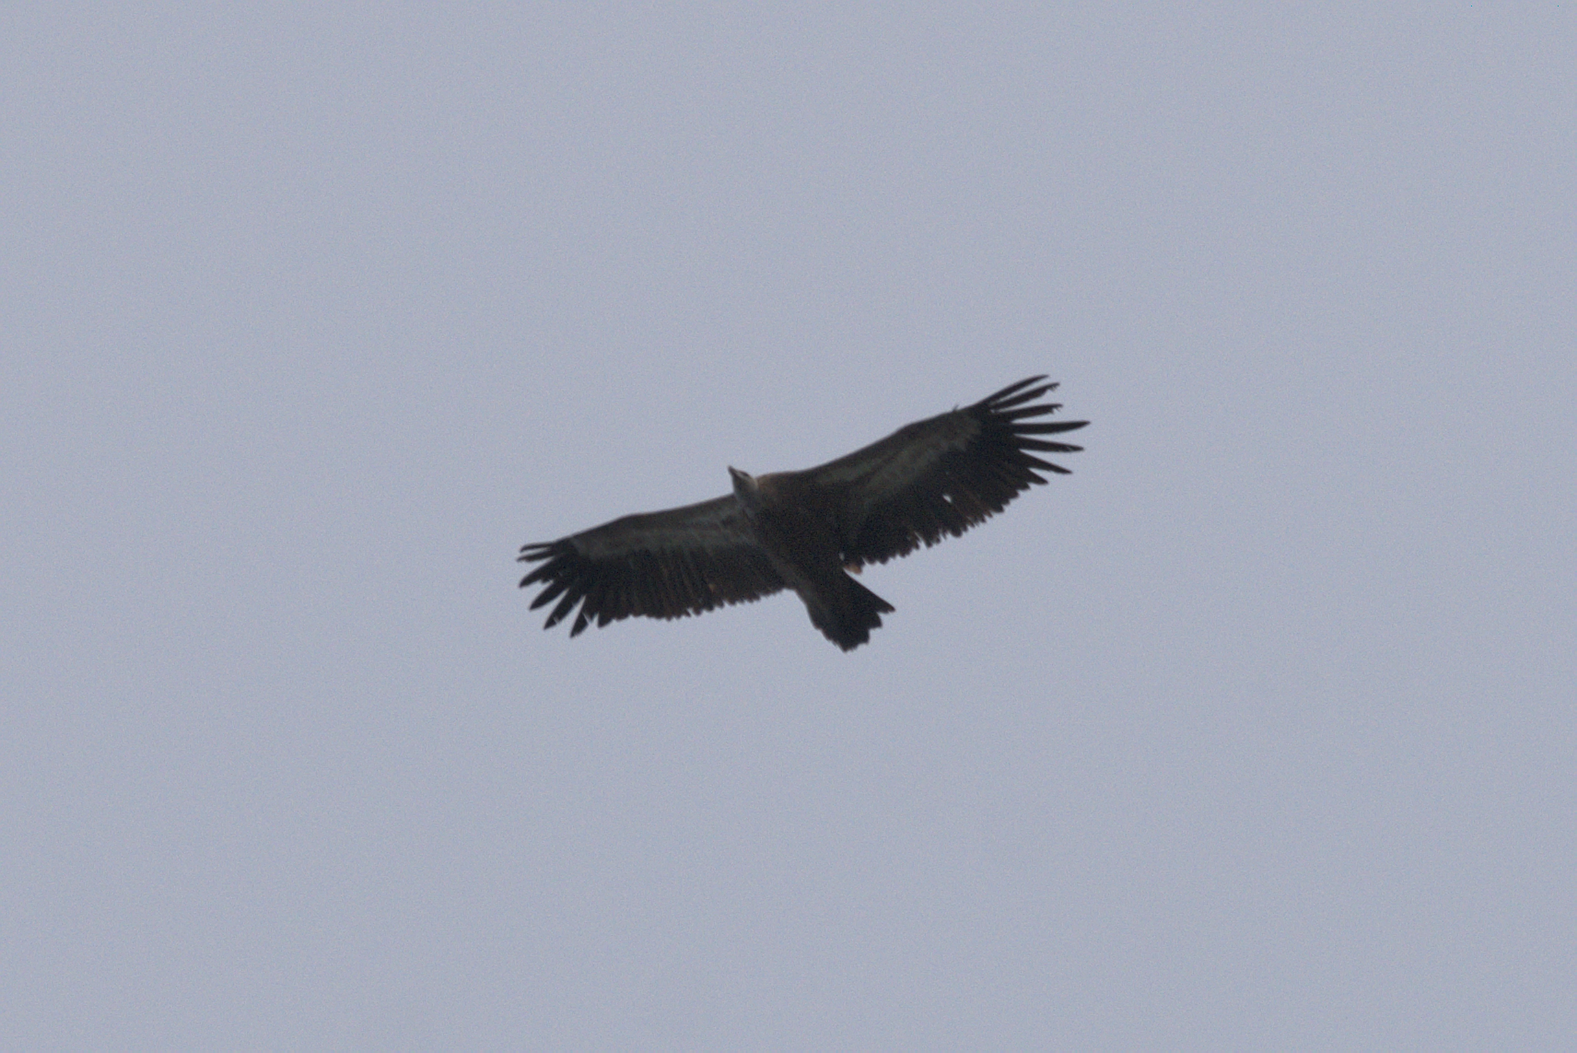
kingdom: Animalia
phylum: Chordata
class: Aves
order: Accipitriformes
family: Accipitridae
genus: Gyps
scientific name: Gyps fulvus
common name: Griffon vulture
